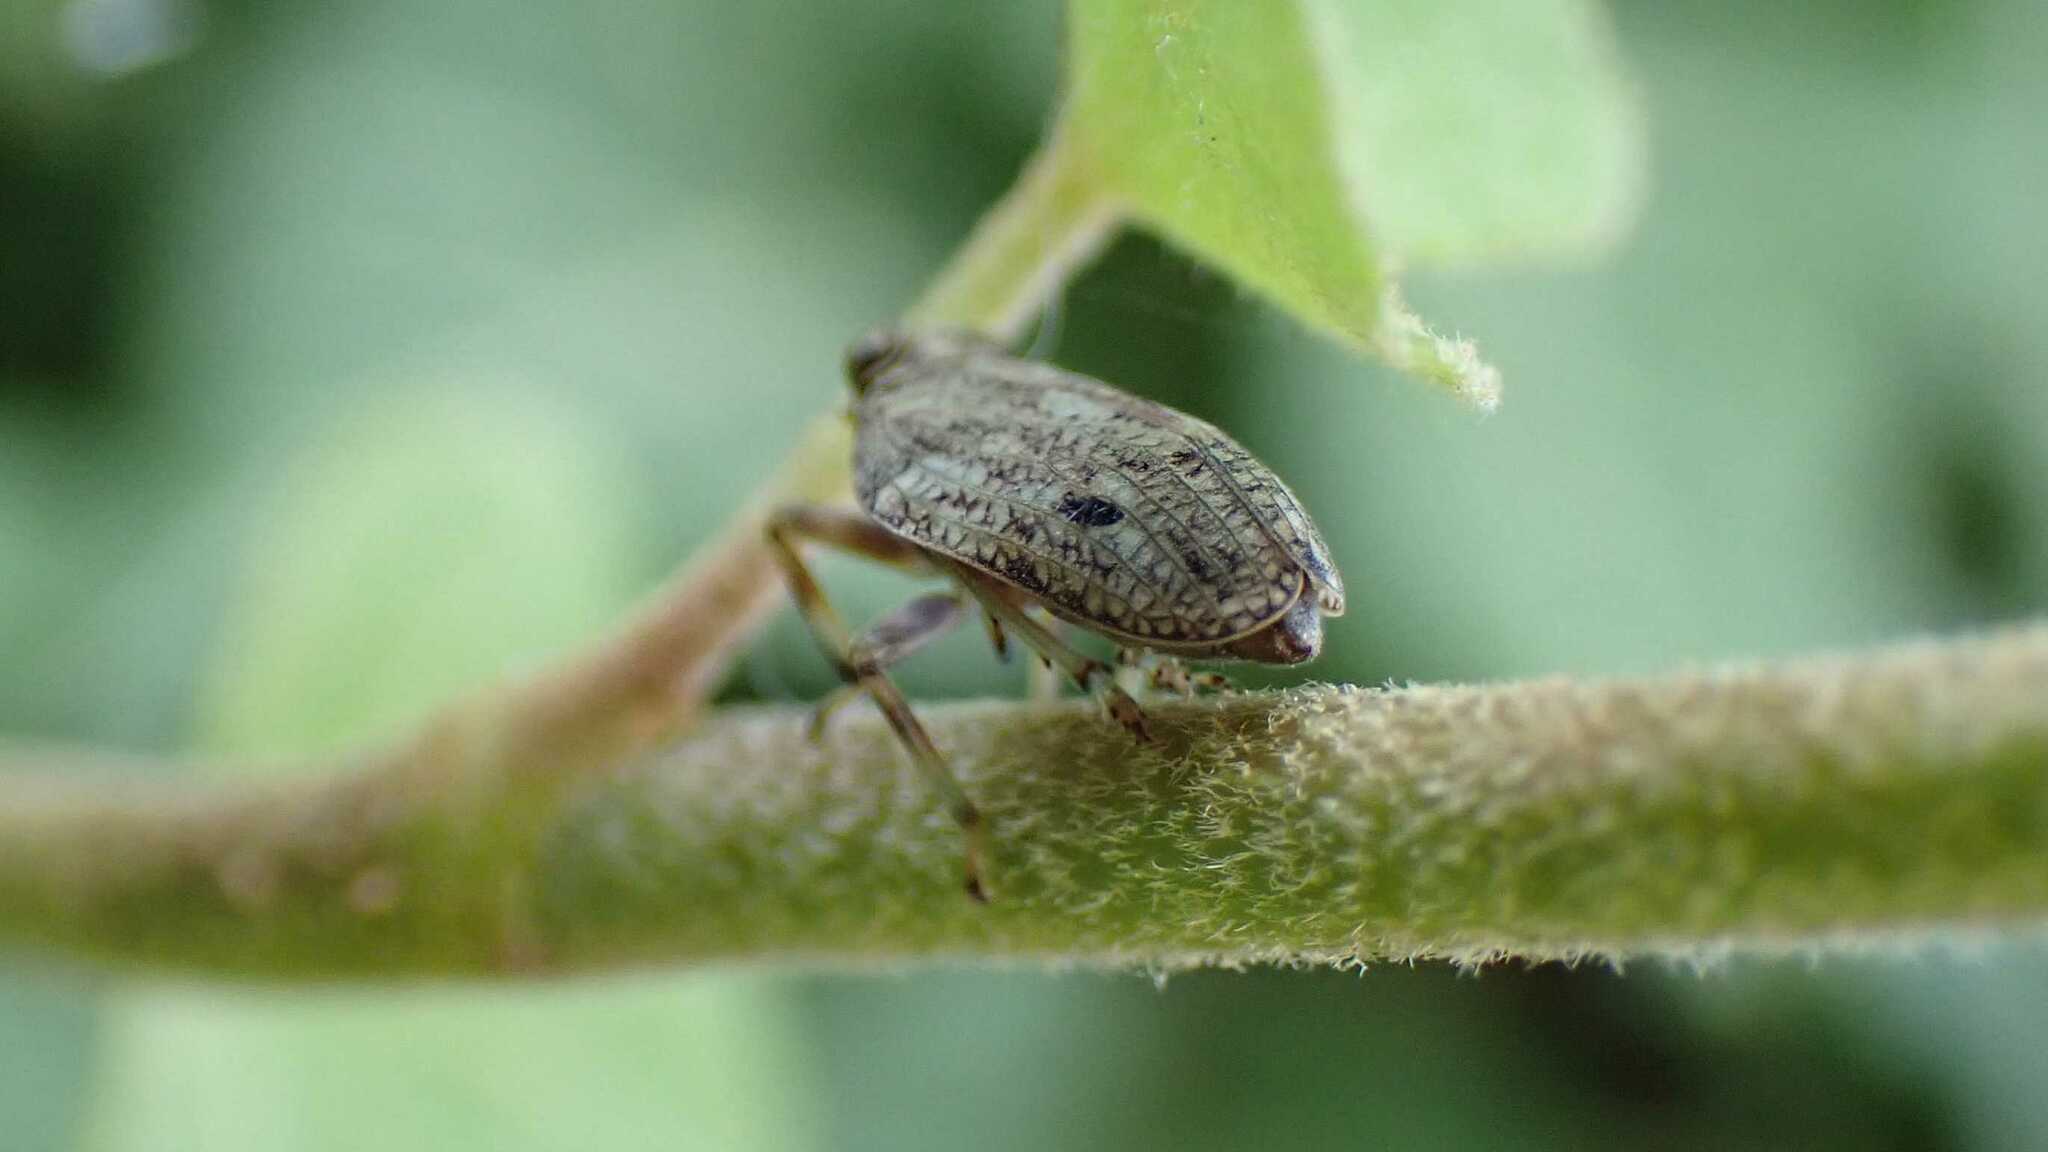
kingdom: Animalia
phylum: Arthropoda
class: Insecta
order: Hemiptera
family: Issidae
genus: Issus
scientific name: Issus coleoptratus
